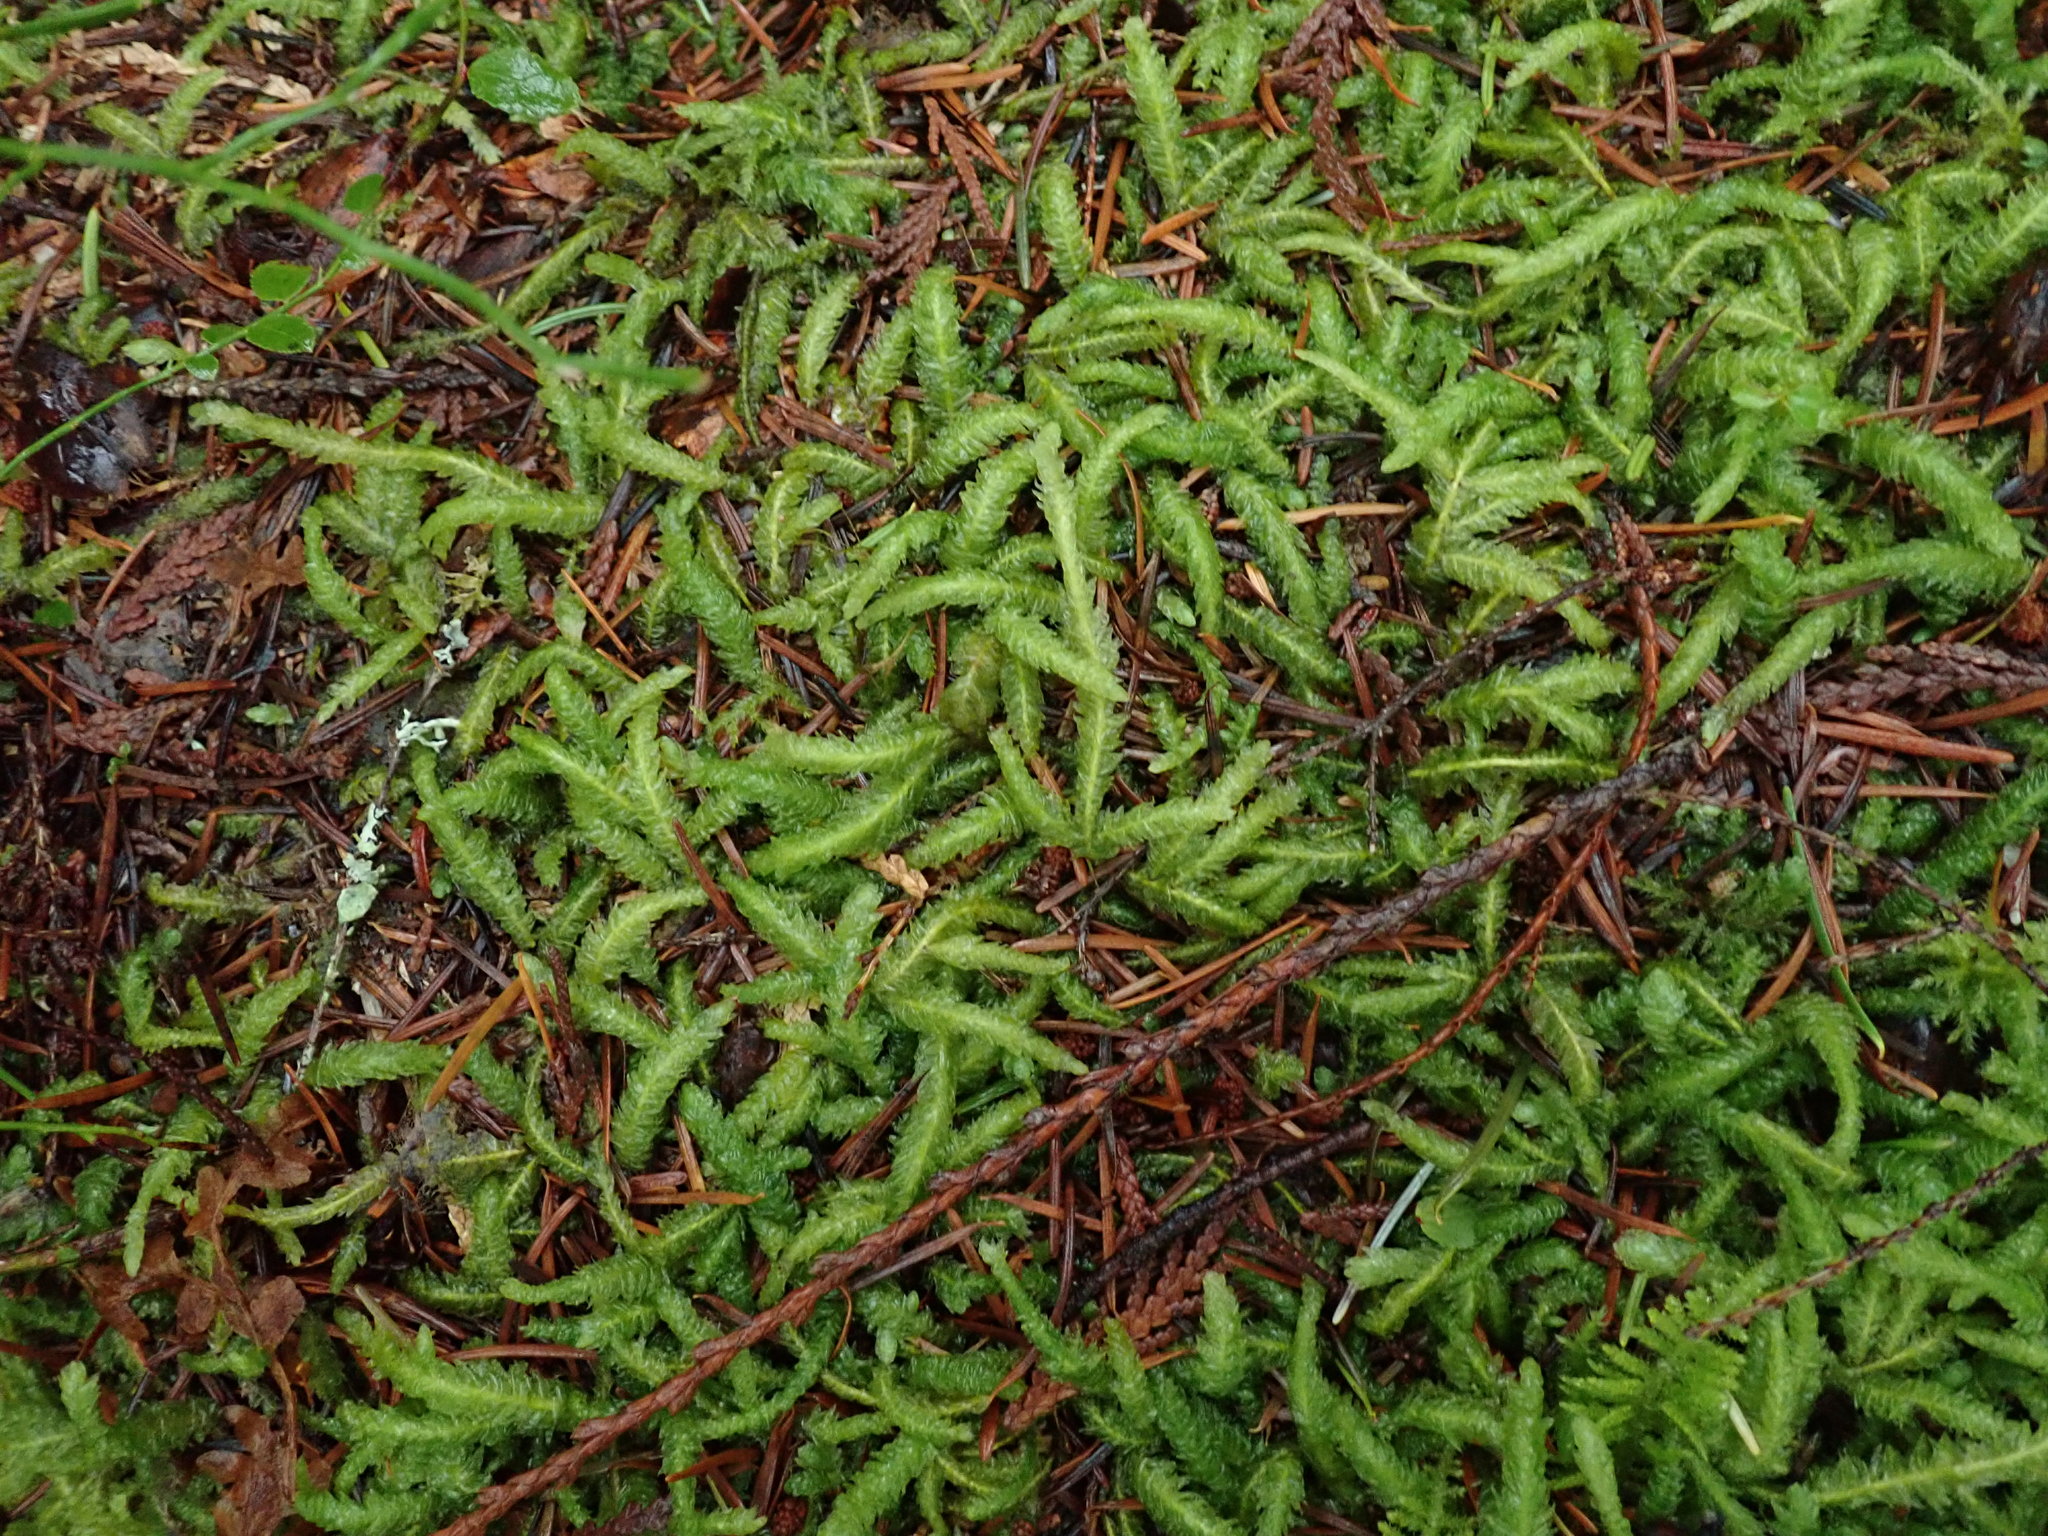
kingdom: Plantae
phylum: Bryophyta
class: Bryopsida
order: Hypnales
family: Plagiotheciaceae
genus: Plagiothecium
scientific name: Plagiothecium undulatum
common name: Waved silk-moss
